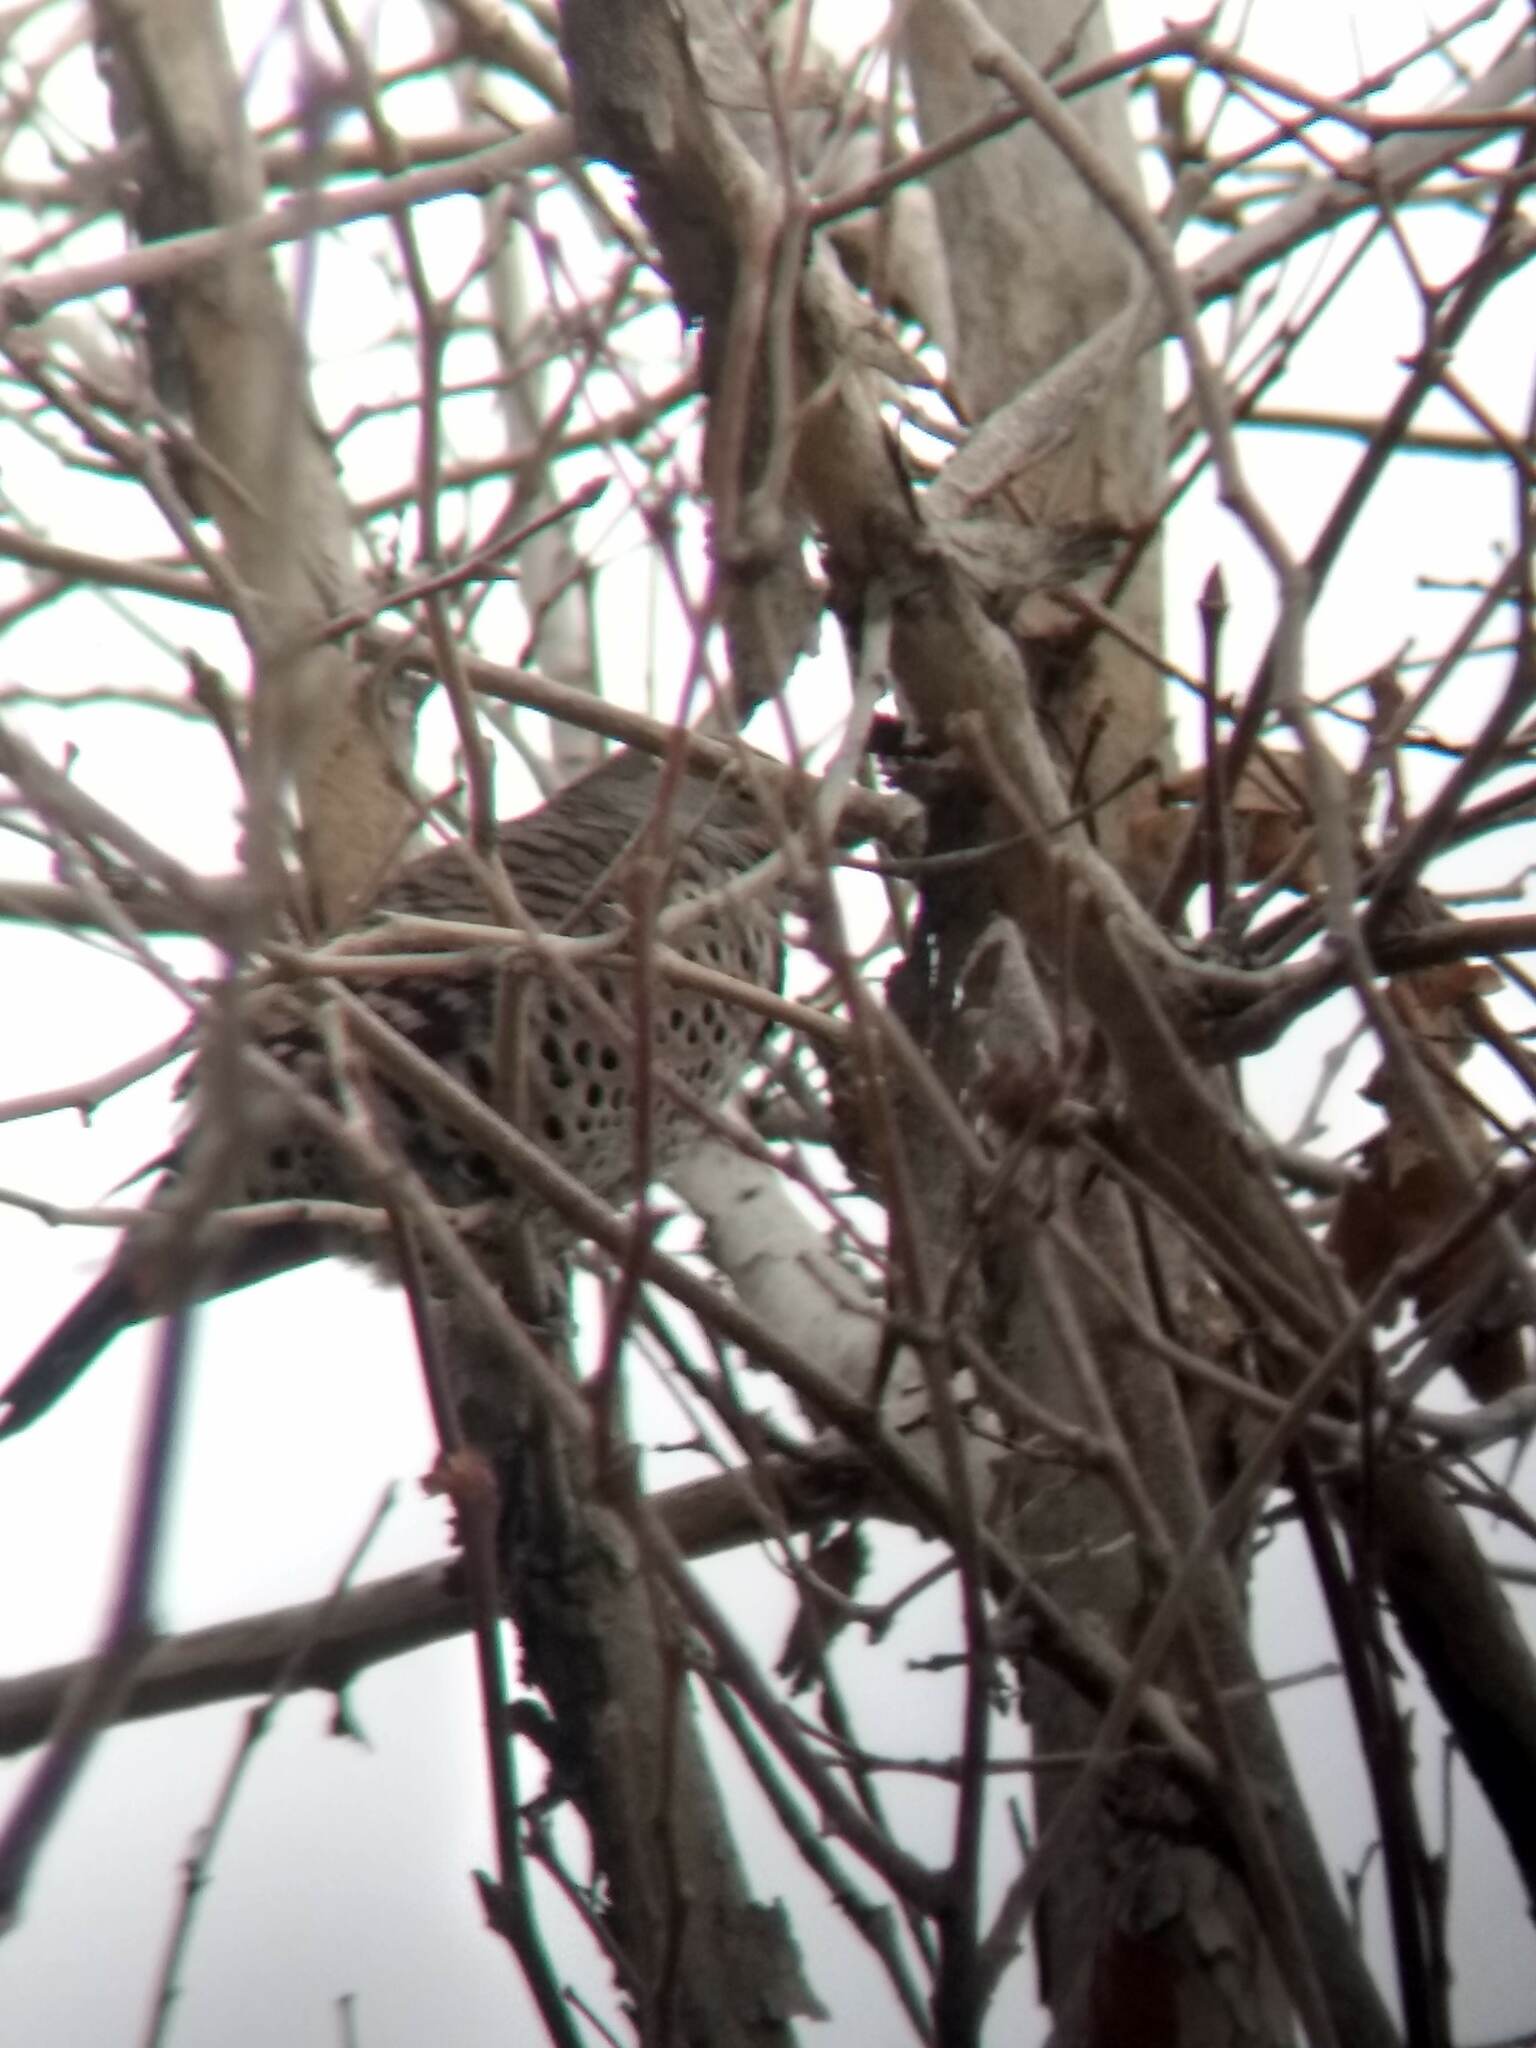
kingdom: Animalia
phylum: Chordata
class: Aves
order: Piciformes
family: Picidae
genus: Colaptes
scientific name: Colaptes auratus
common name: Northern flicker
